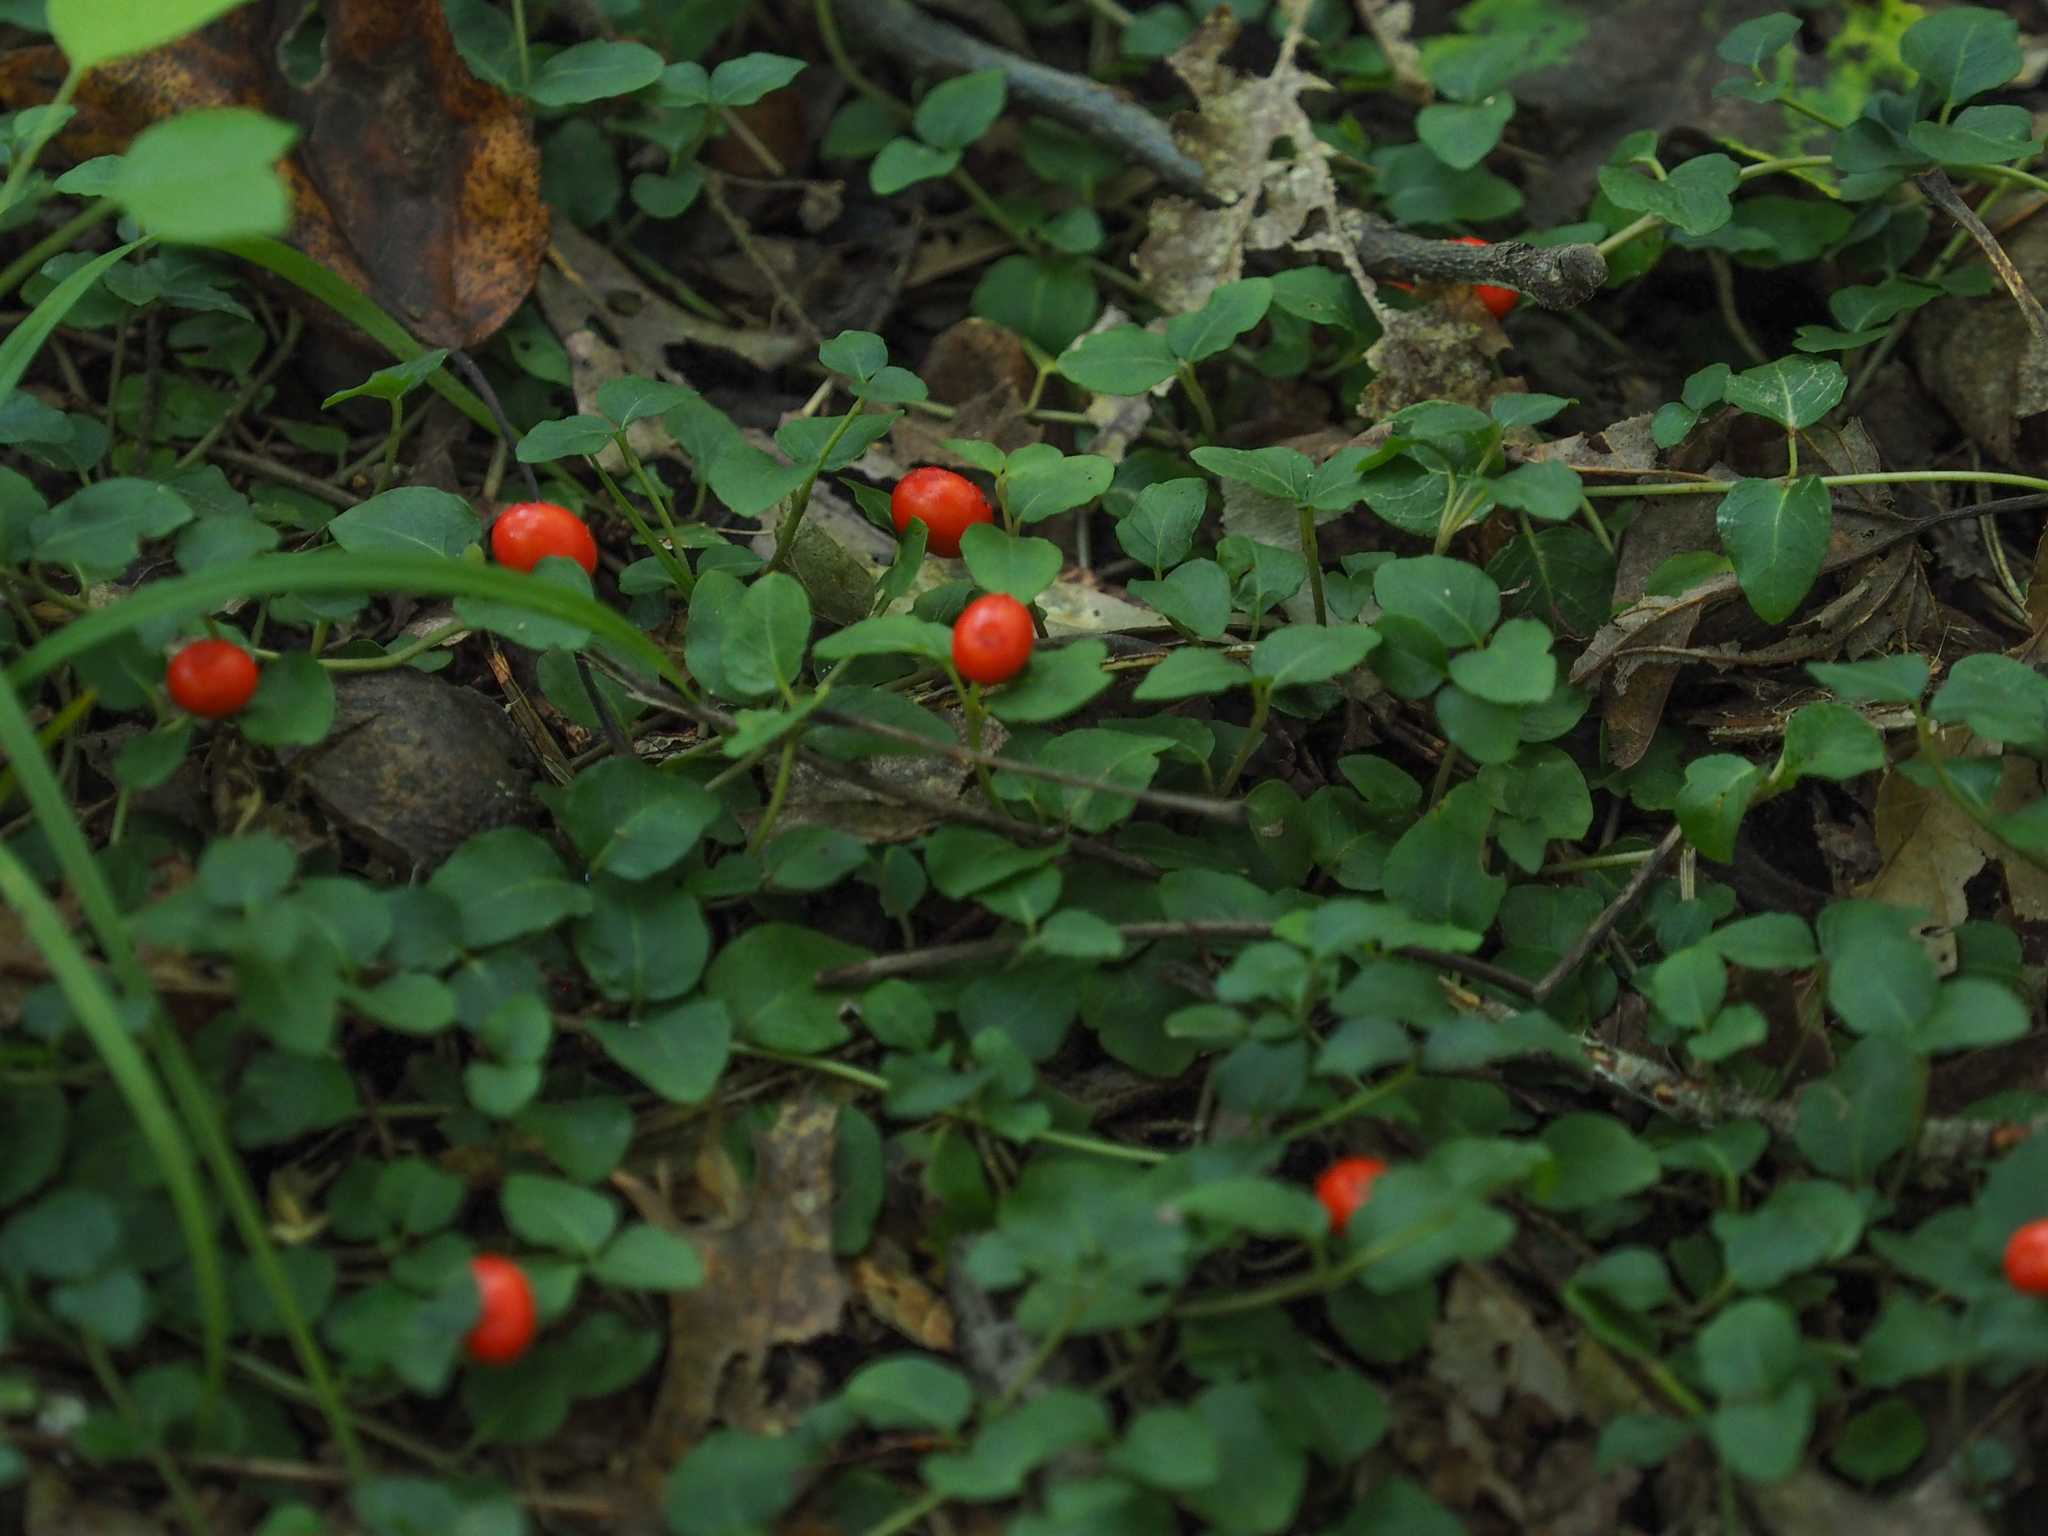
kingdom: Plantae
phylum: Tracheophyta
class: Magnoliopsida
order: Gentianales
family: Rubiaceae
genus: Mitchella
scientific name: Mitchella repens
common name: Partridge-berry
